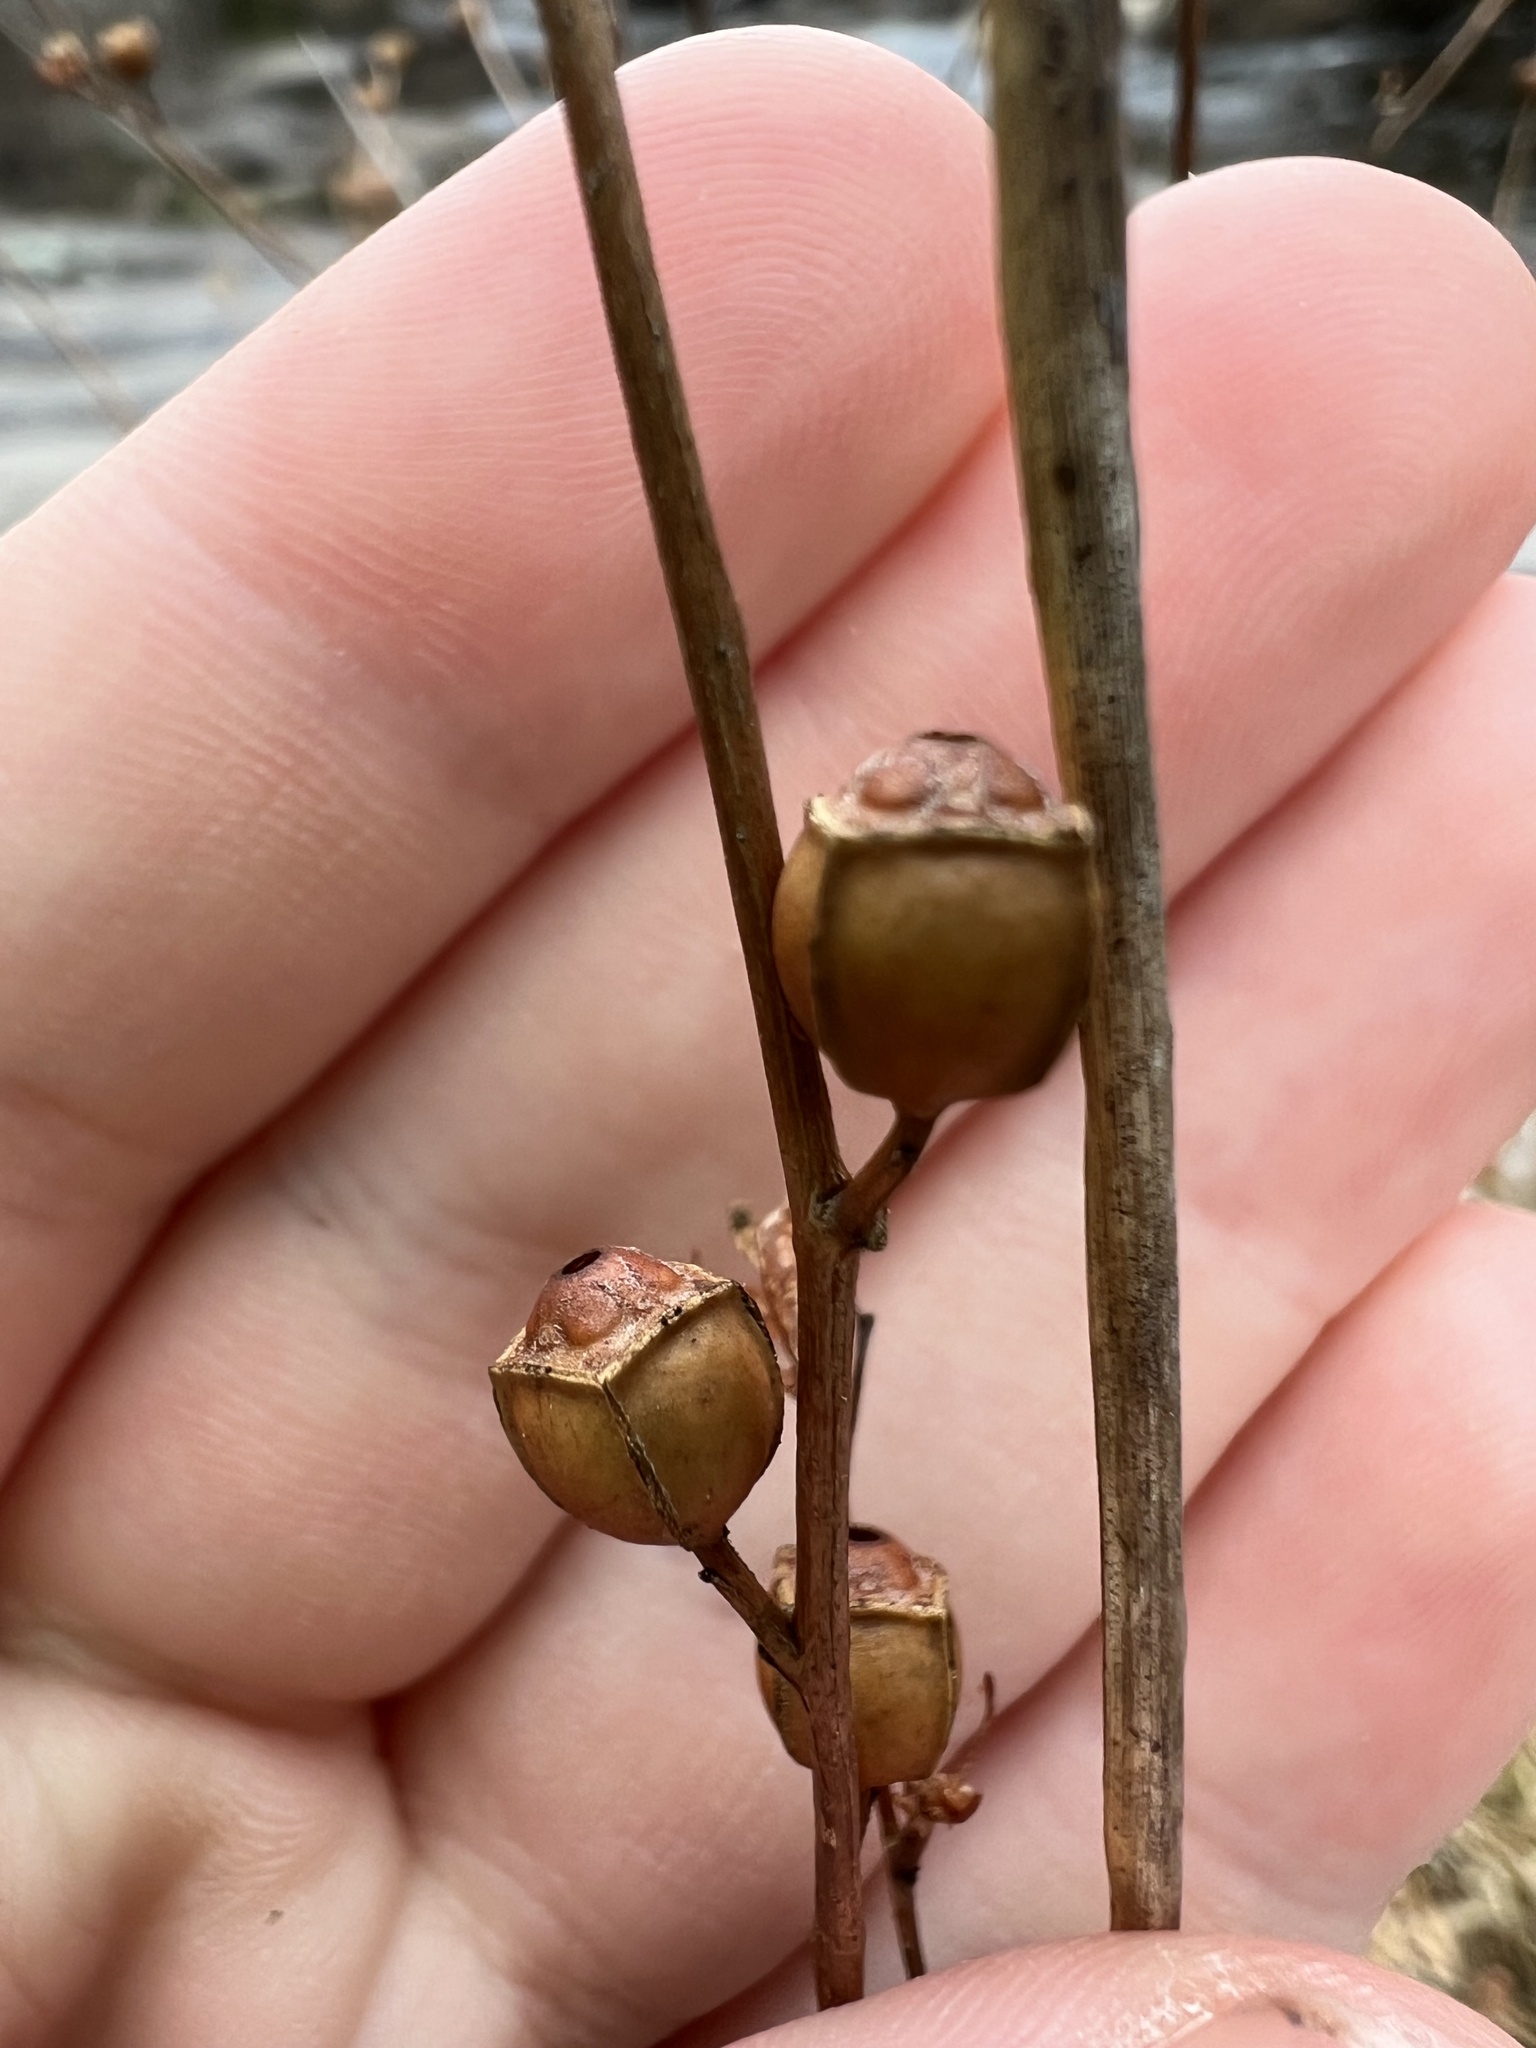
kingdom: Plantae
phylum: Tracheophyta
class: Magnoliopsida
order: Myrtales
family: Onagraceae
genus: Ludwigia
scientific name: Ludwigia alternifolia
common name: Rattlebox
